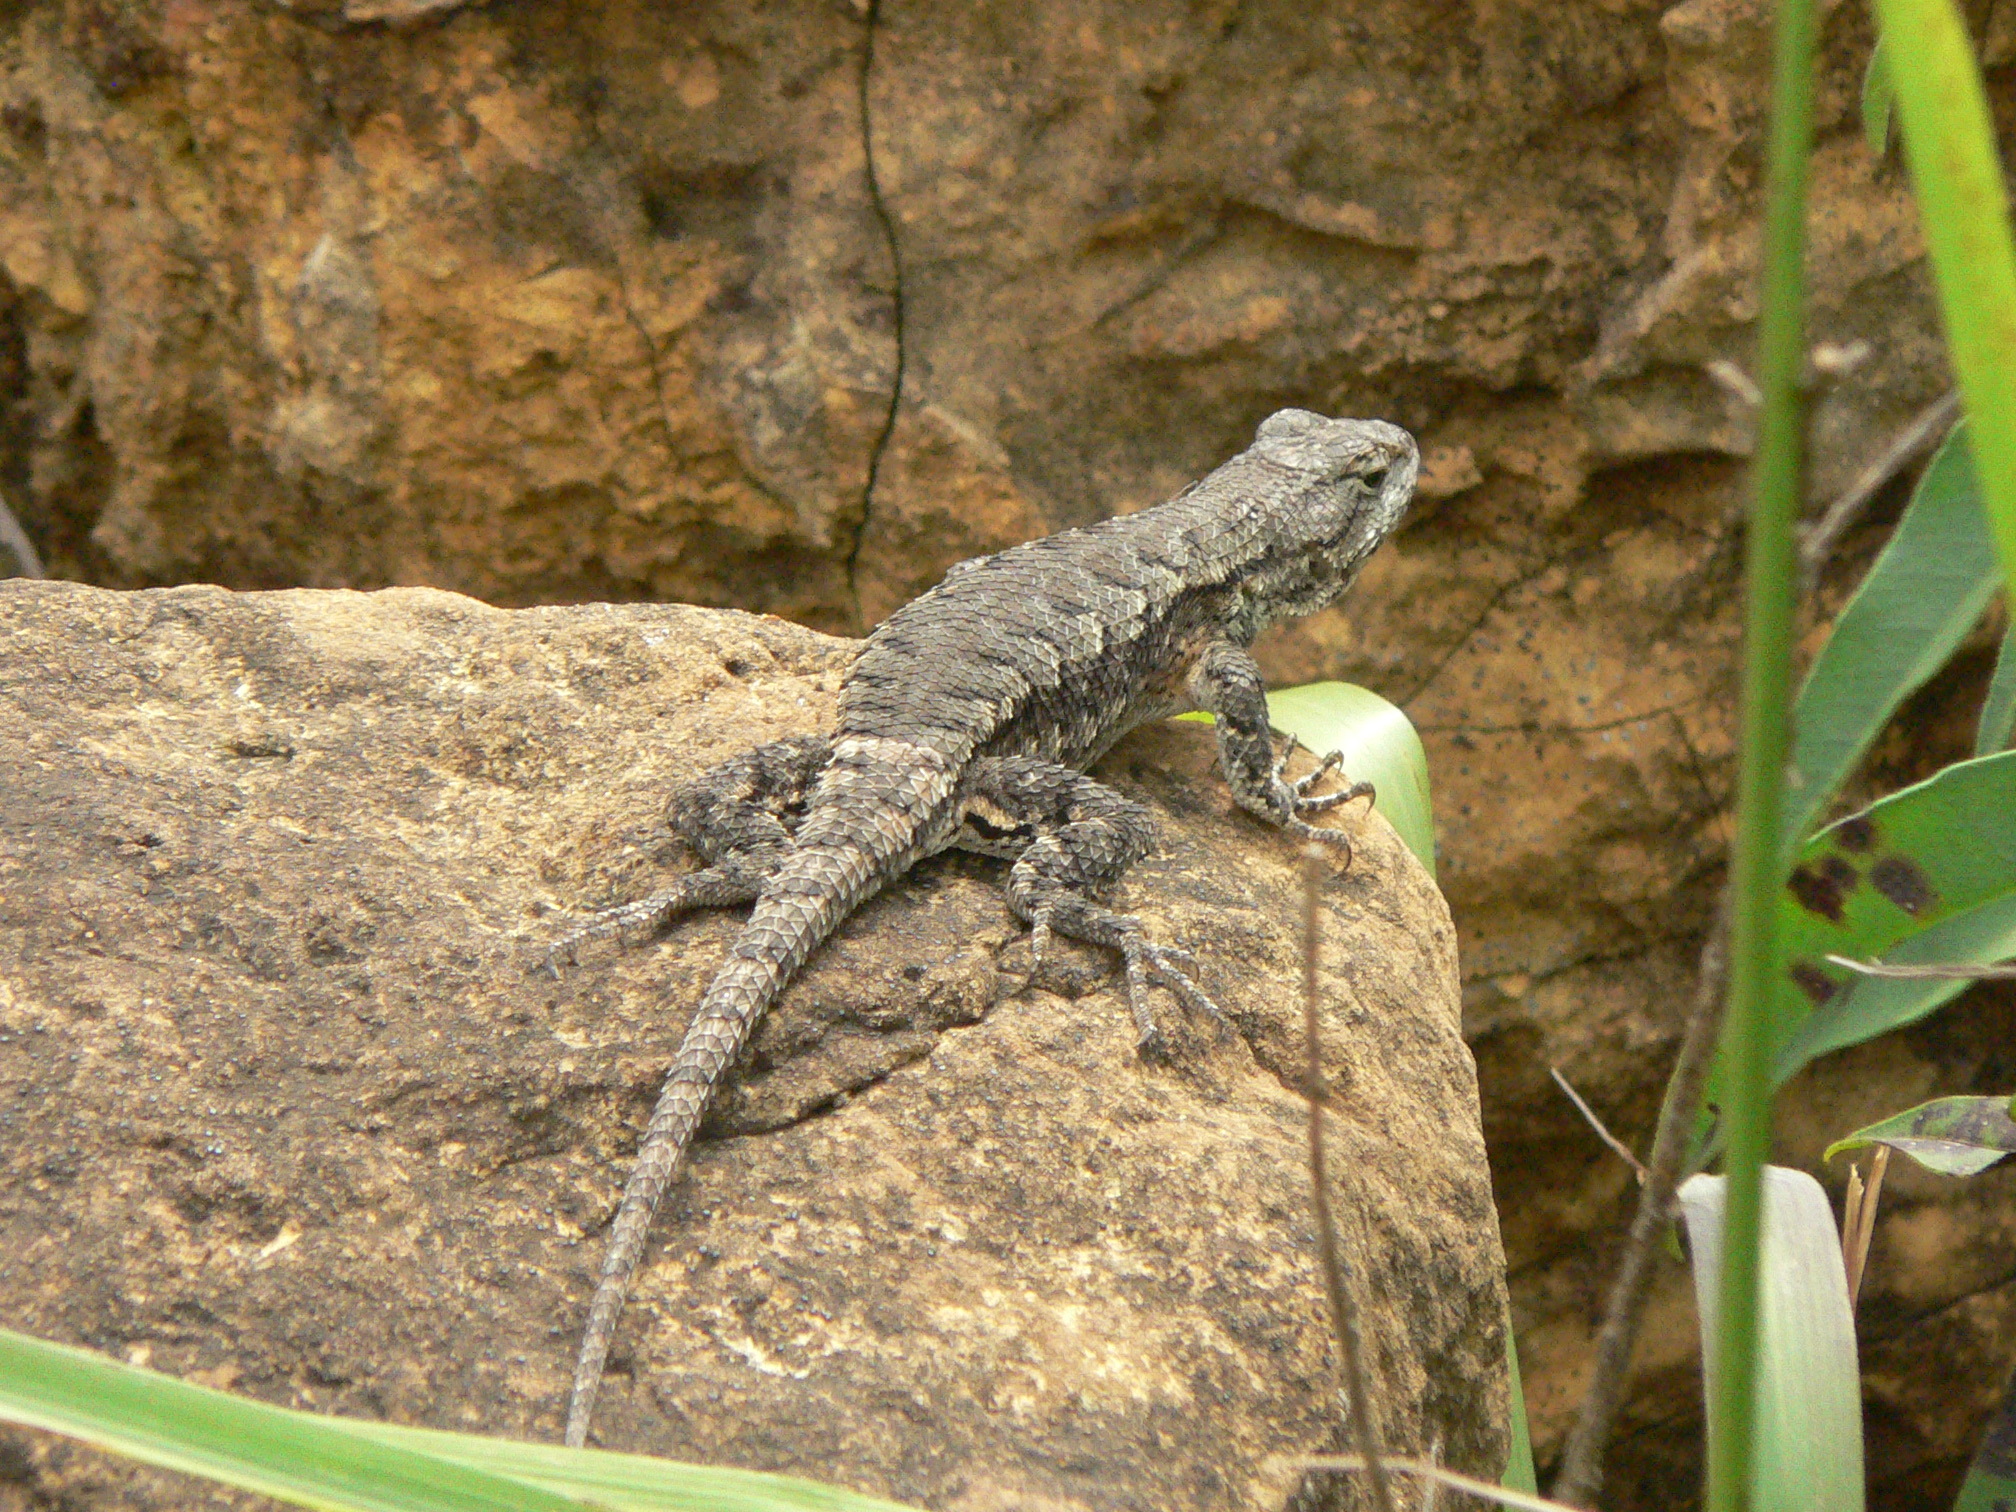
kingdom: Animalia
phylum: Chordata
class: Squamata
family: Phrynosomatidae
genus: Sceloporus
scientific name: Sceloporus undulatus
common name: Eastern fence lizard
